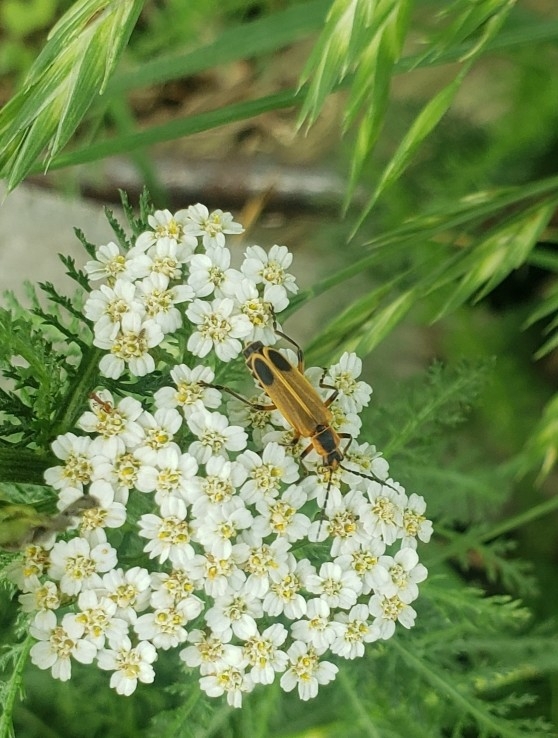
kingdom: Animalia
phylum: Arthropoda
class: Insecta
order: Coleoptera
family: Cantharidae
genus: Chauliognathus
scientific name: Chauliognathus marginatus
